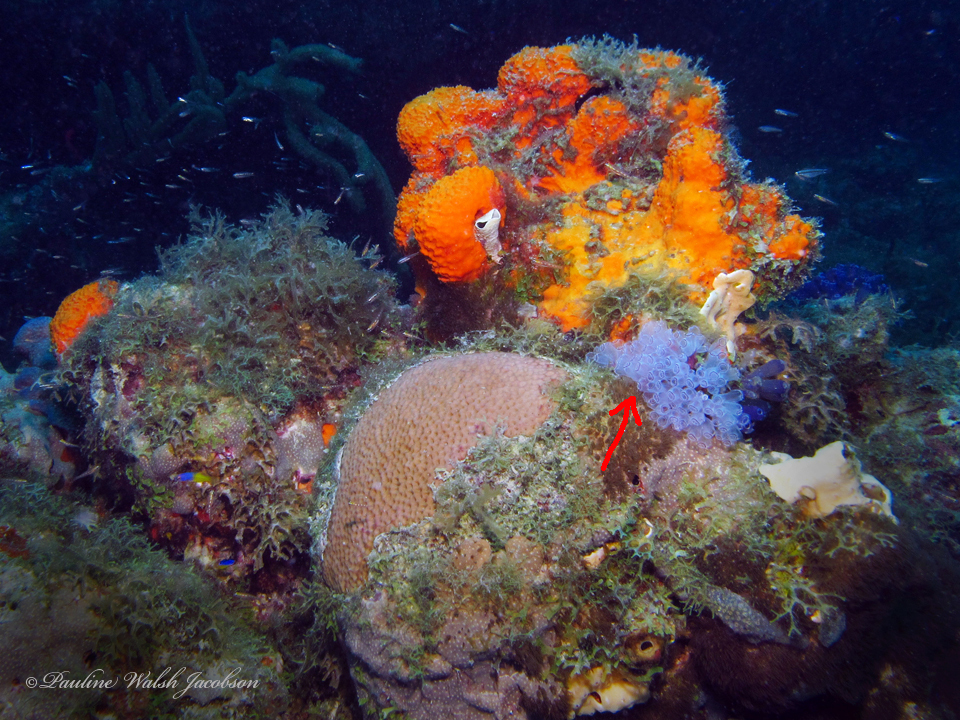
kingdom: Animalia
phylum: Chordata
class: Ascidiacea
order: Aplousobranchia
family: Clavelinidae
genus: Clavelina
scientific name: Clavelina picta
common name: Painted tunicate
